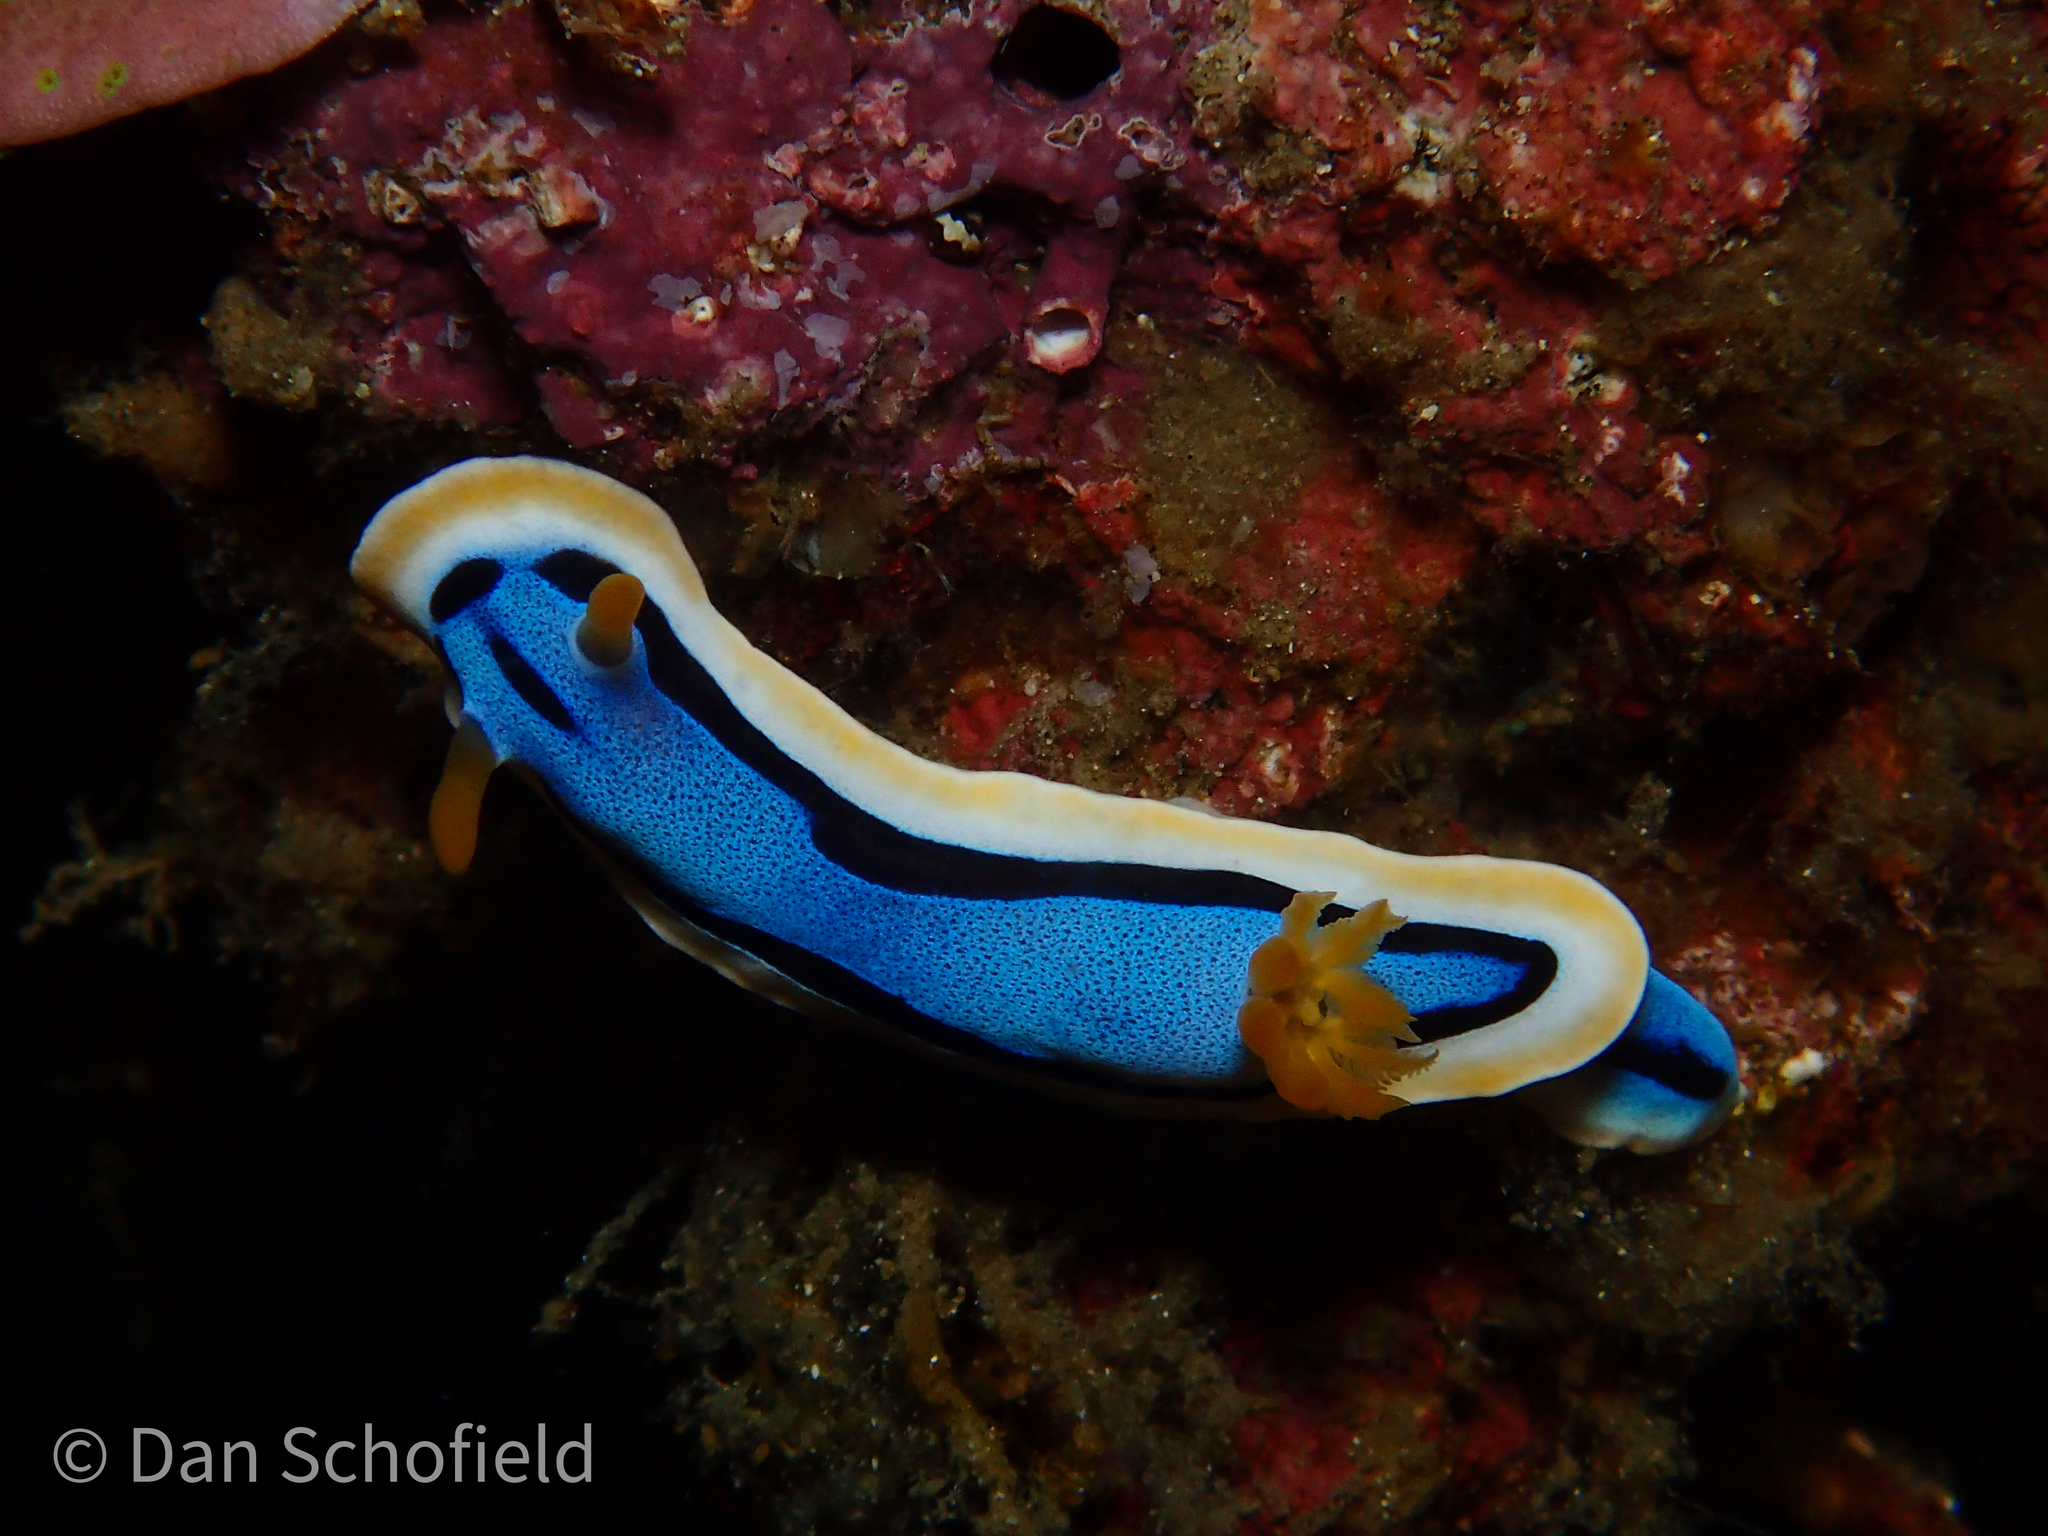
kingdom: Animalia
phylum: Mollusca
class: Gastropoda
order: Nudibranchia
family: Chromodorididae
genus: Chromodoris
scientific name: Chromodoris annae
